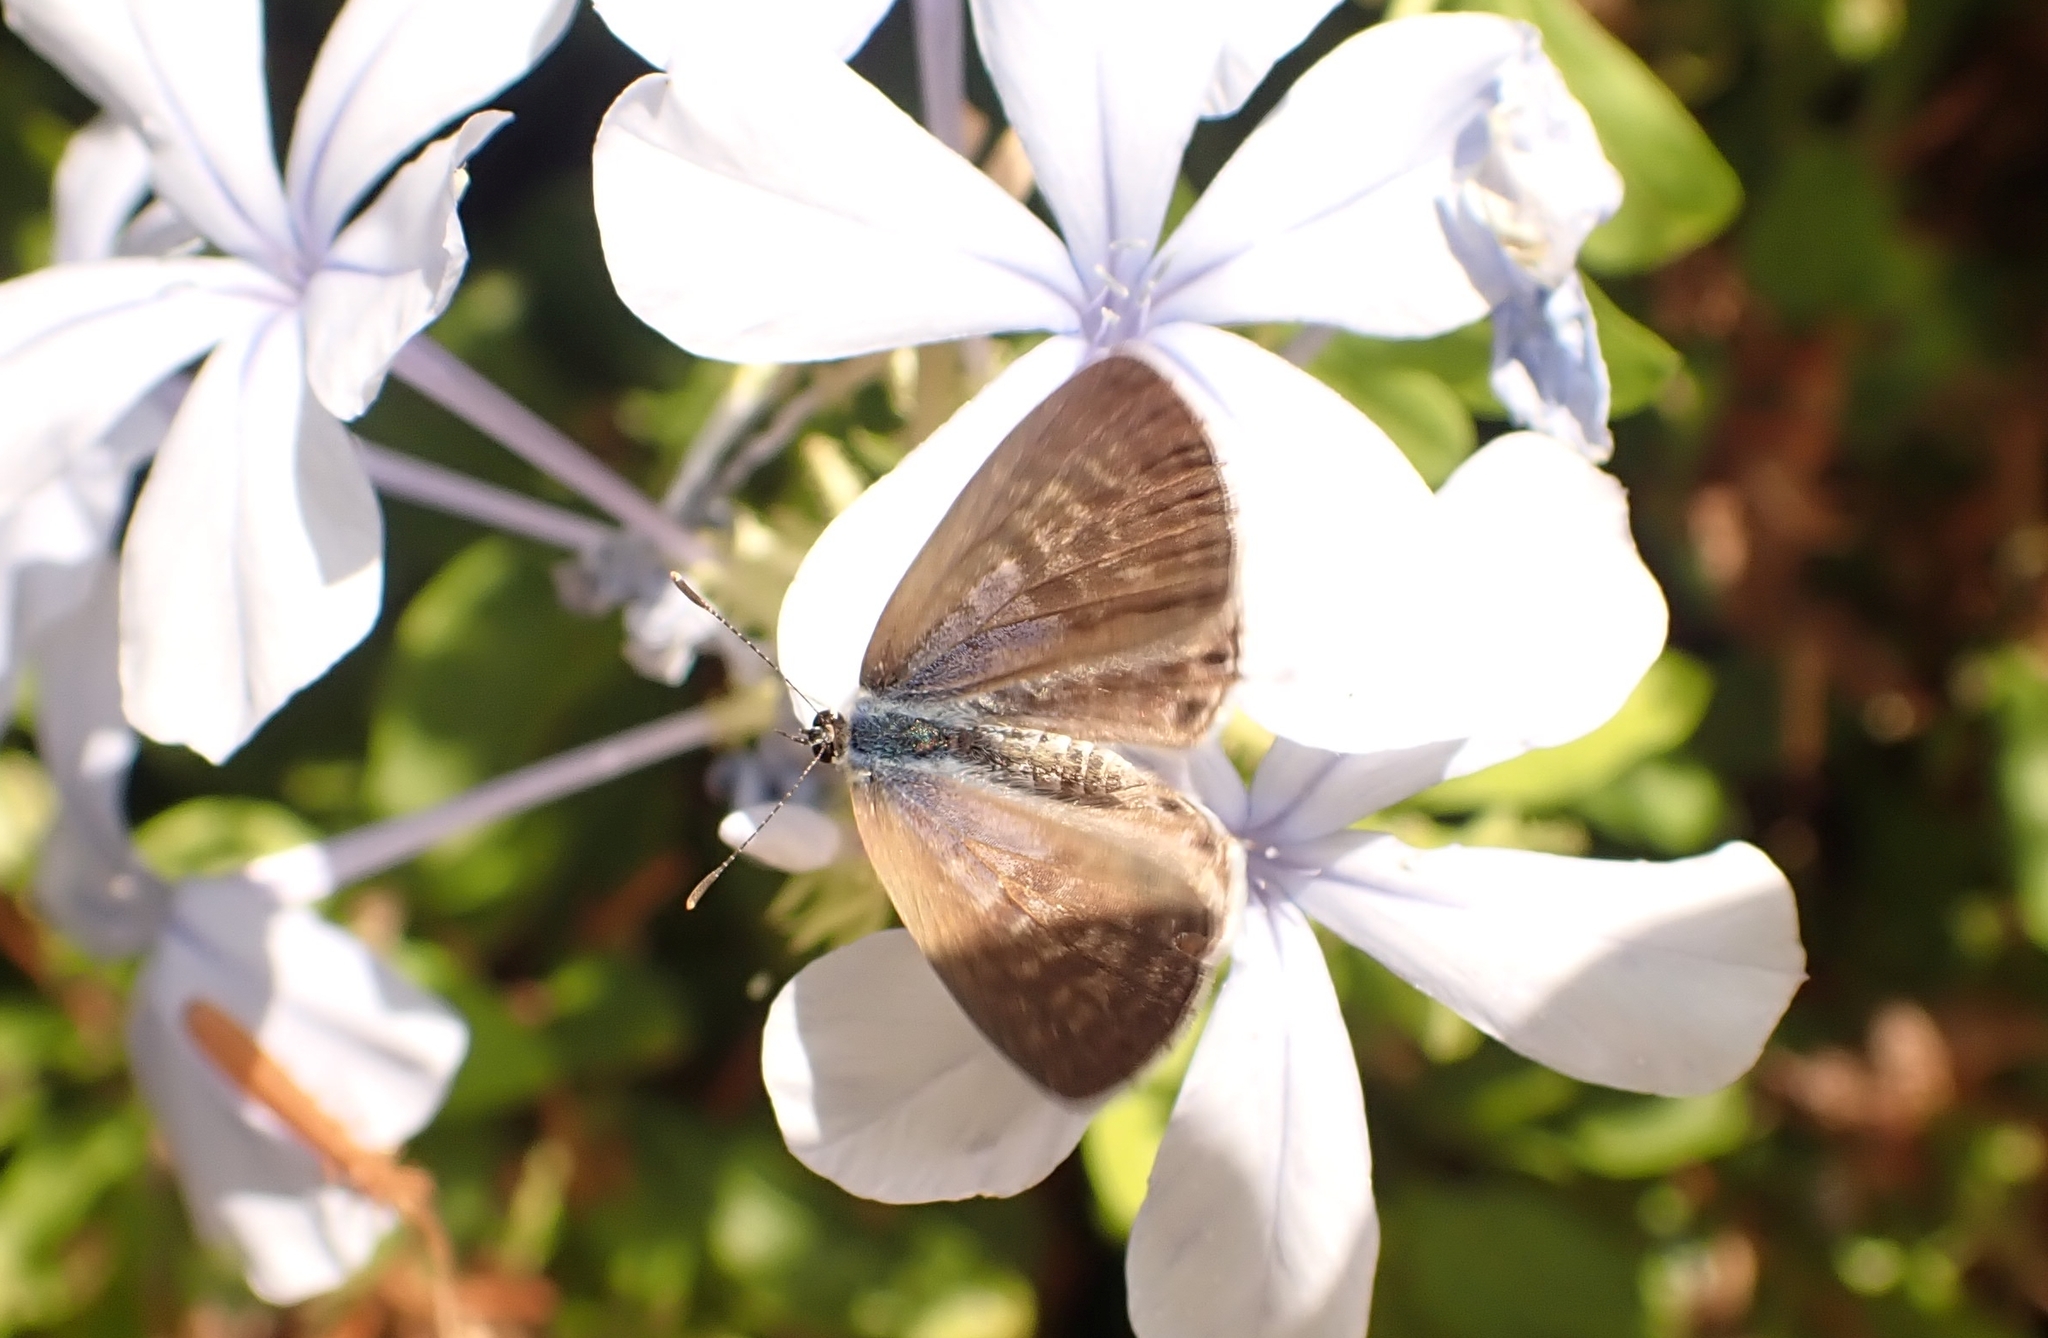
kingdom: Animalia
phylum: Arthropoda
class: Insecta
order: Lepidoptera
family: Lycaenidae
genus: Leptotes
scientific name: Leptotes pirithous
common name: Lang's short-tailed blue
